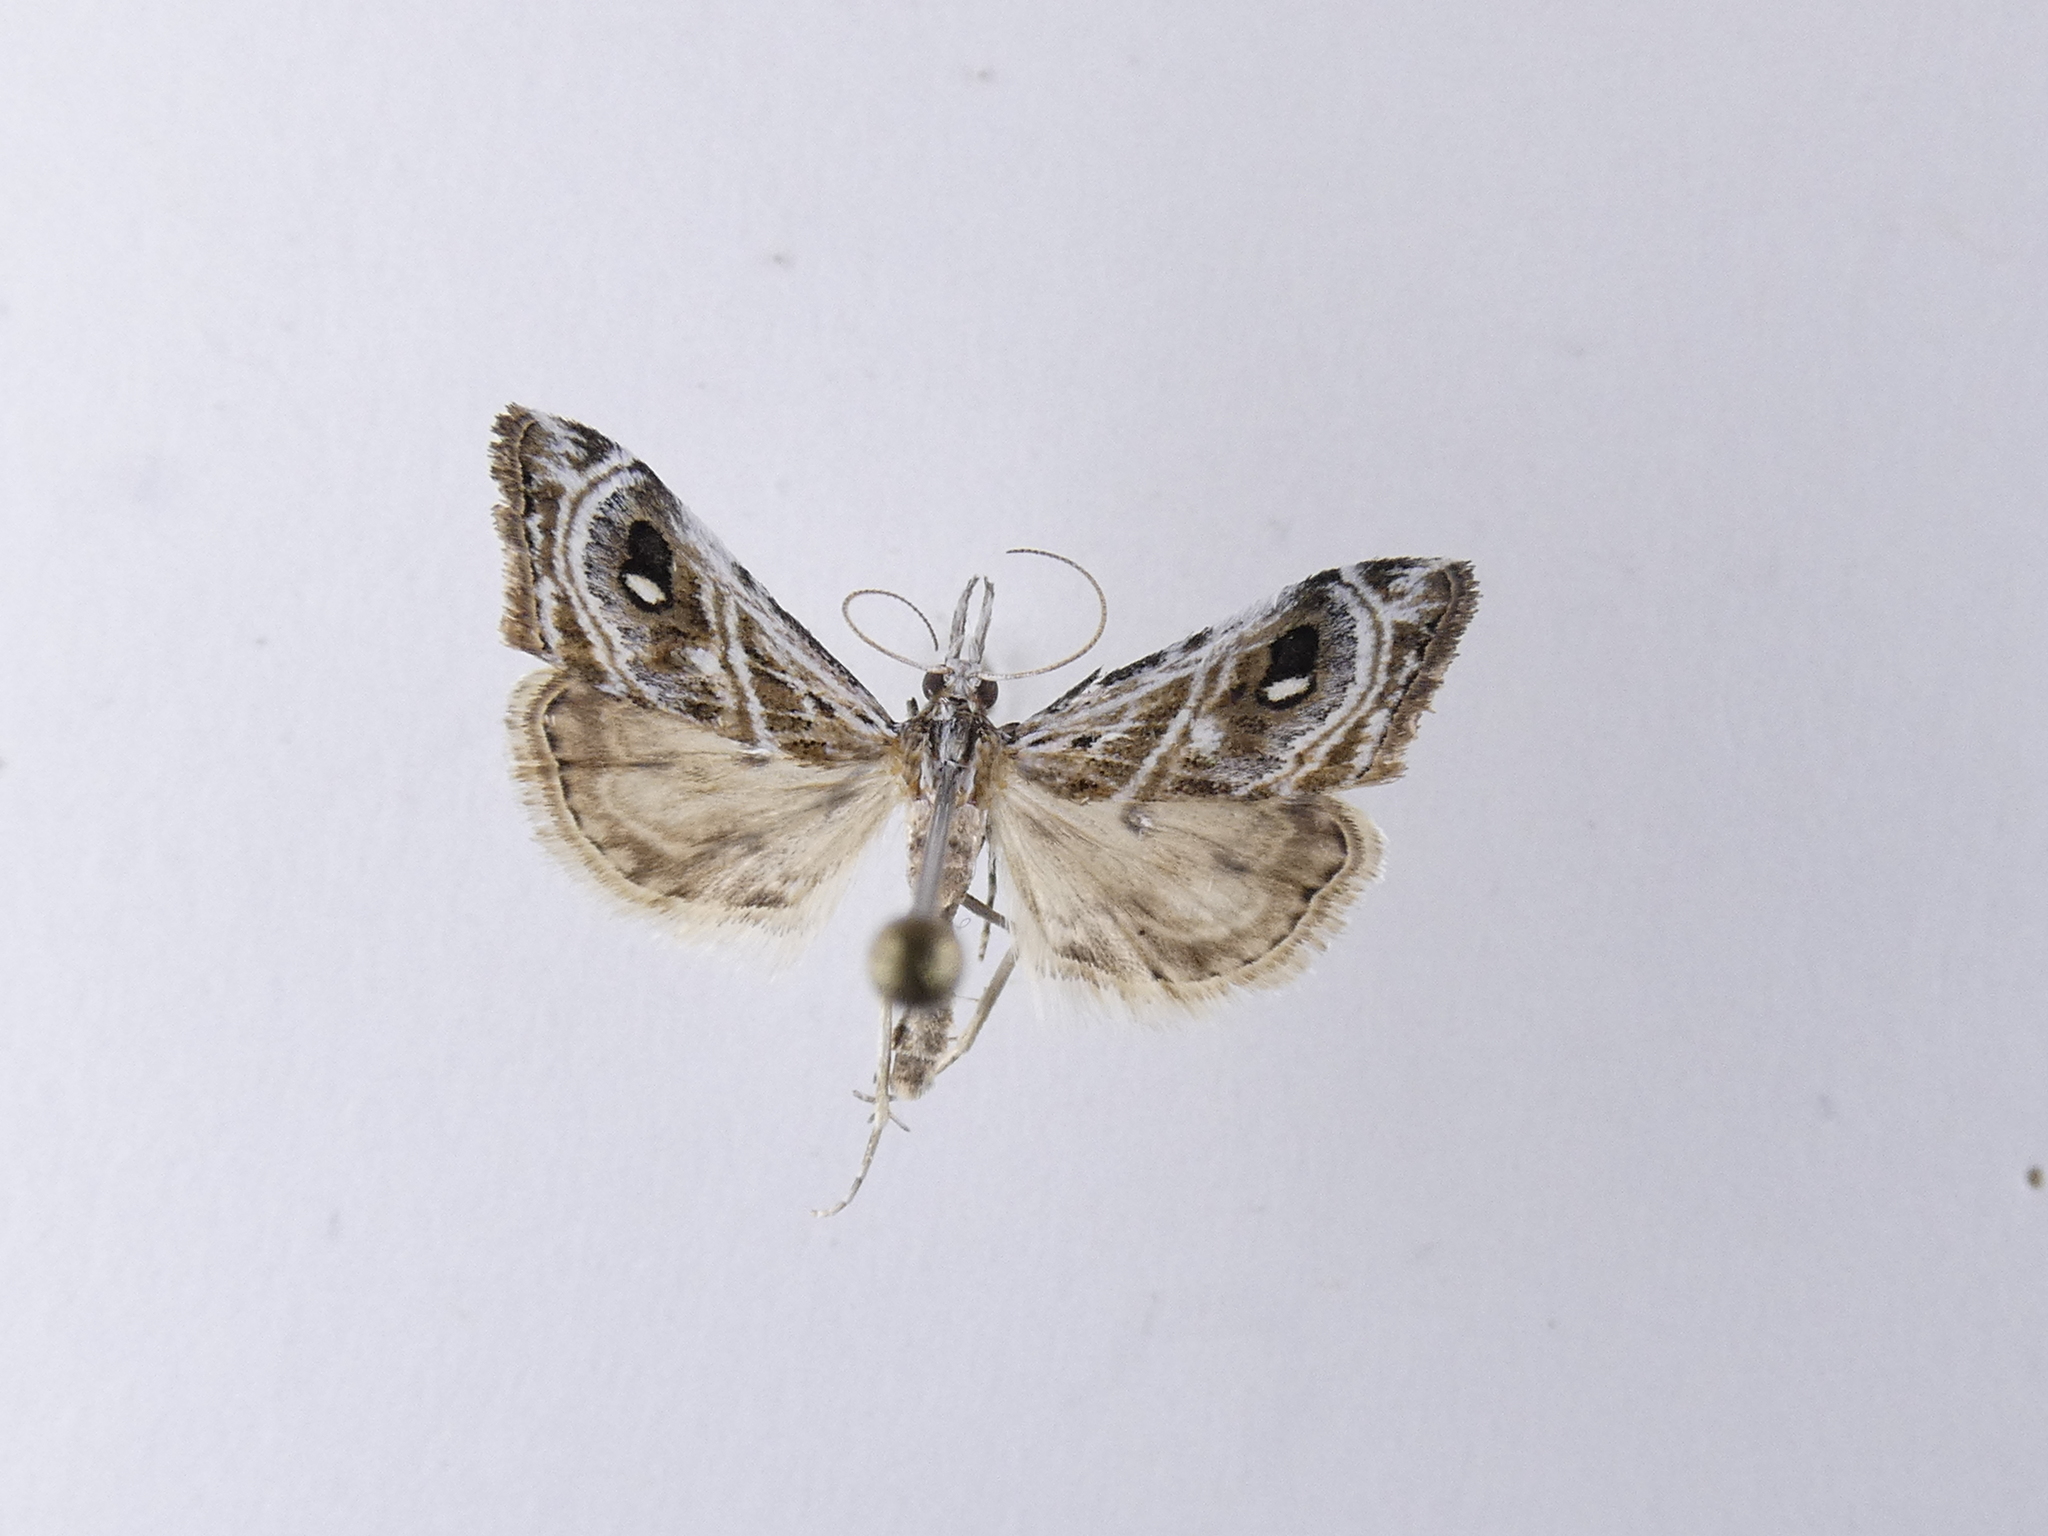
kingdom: Animalia
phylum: Arthropoda
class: Insecta
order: Lepidoptera
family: Crambidae
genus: Gadira
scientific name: Gadira acerella
